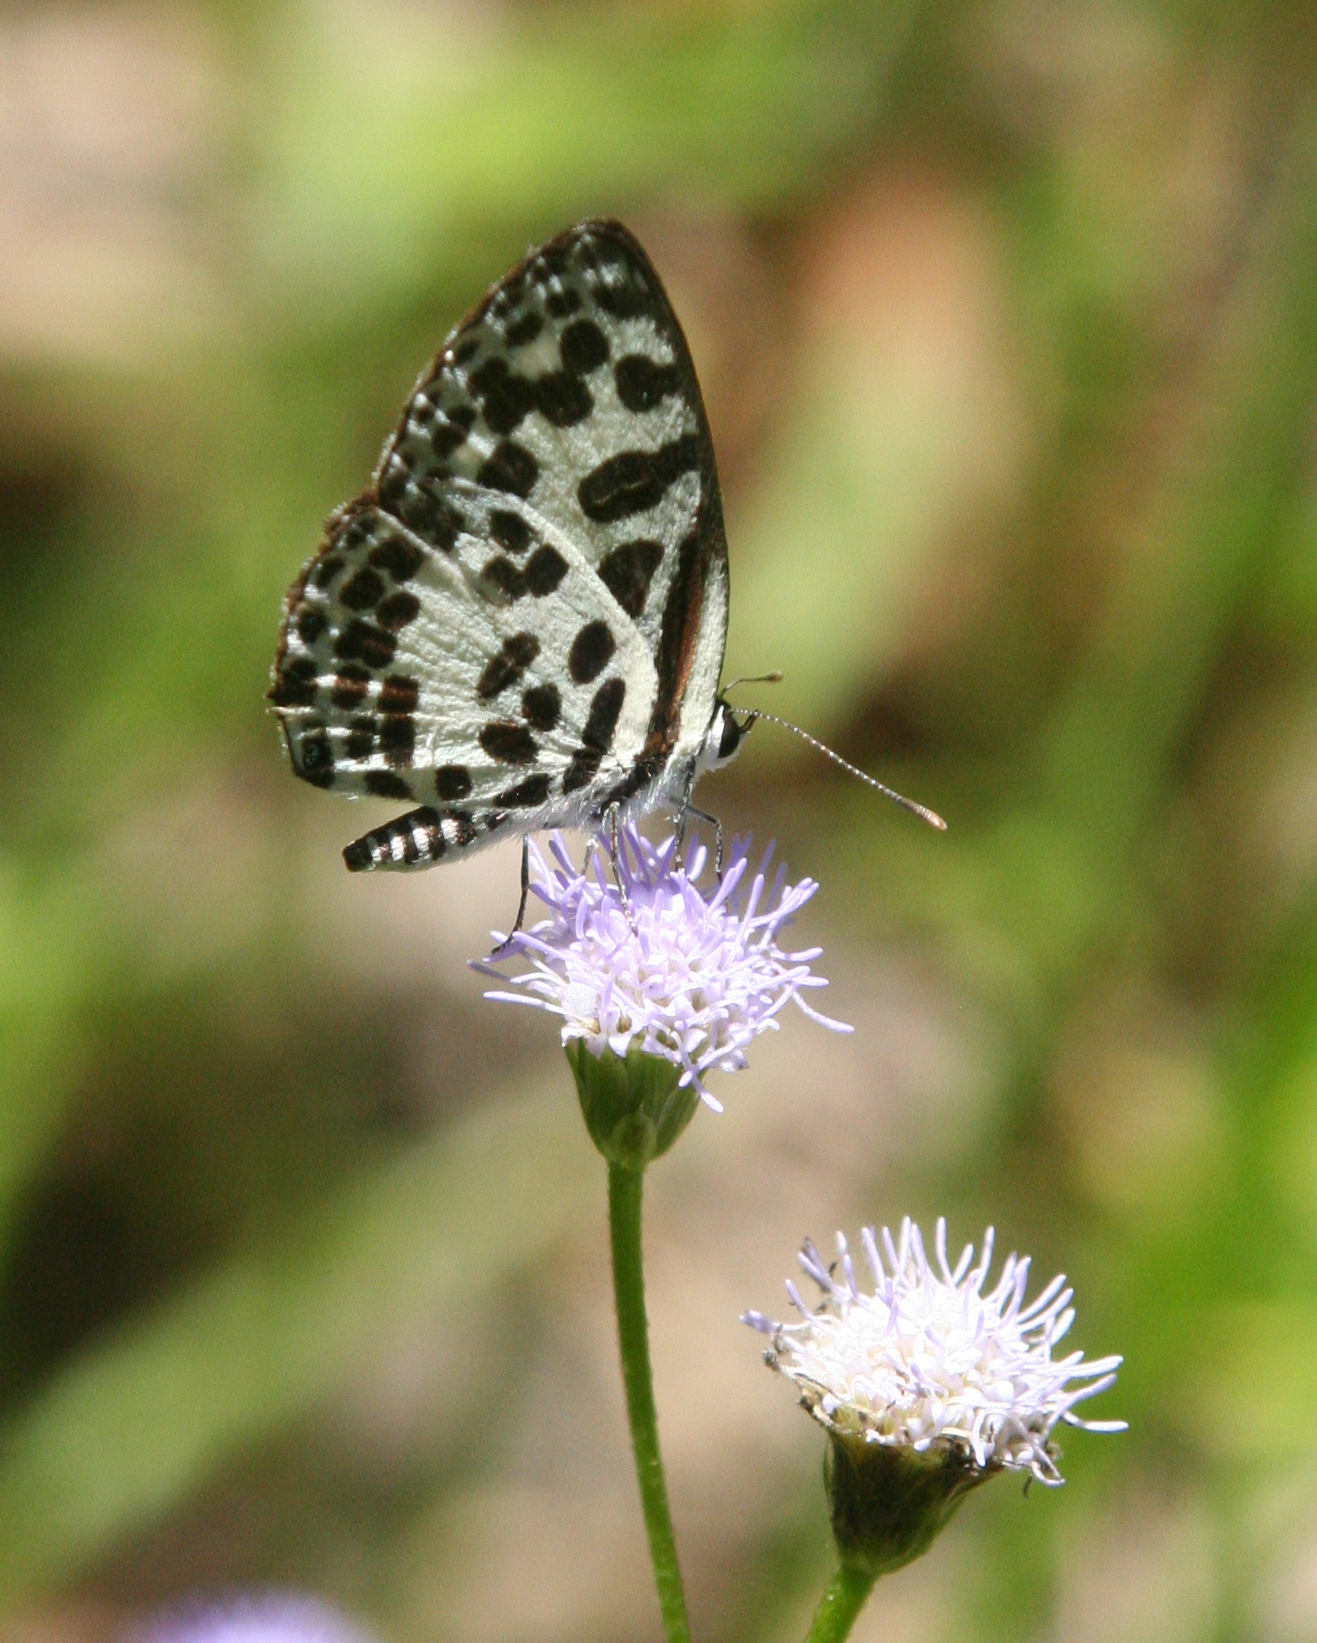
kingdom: Animalia
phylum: Arthropoda
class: Insecta
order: Lepidoptera
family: Lycaenidae
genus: Castalius
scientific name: Castalius rosimon
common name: Common pierrot
